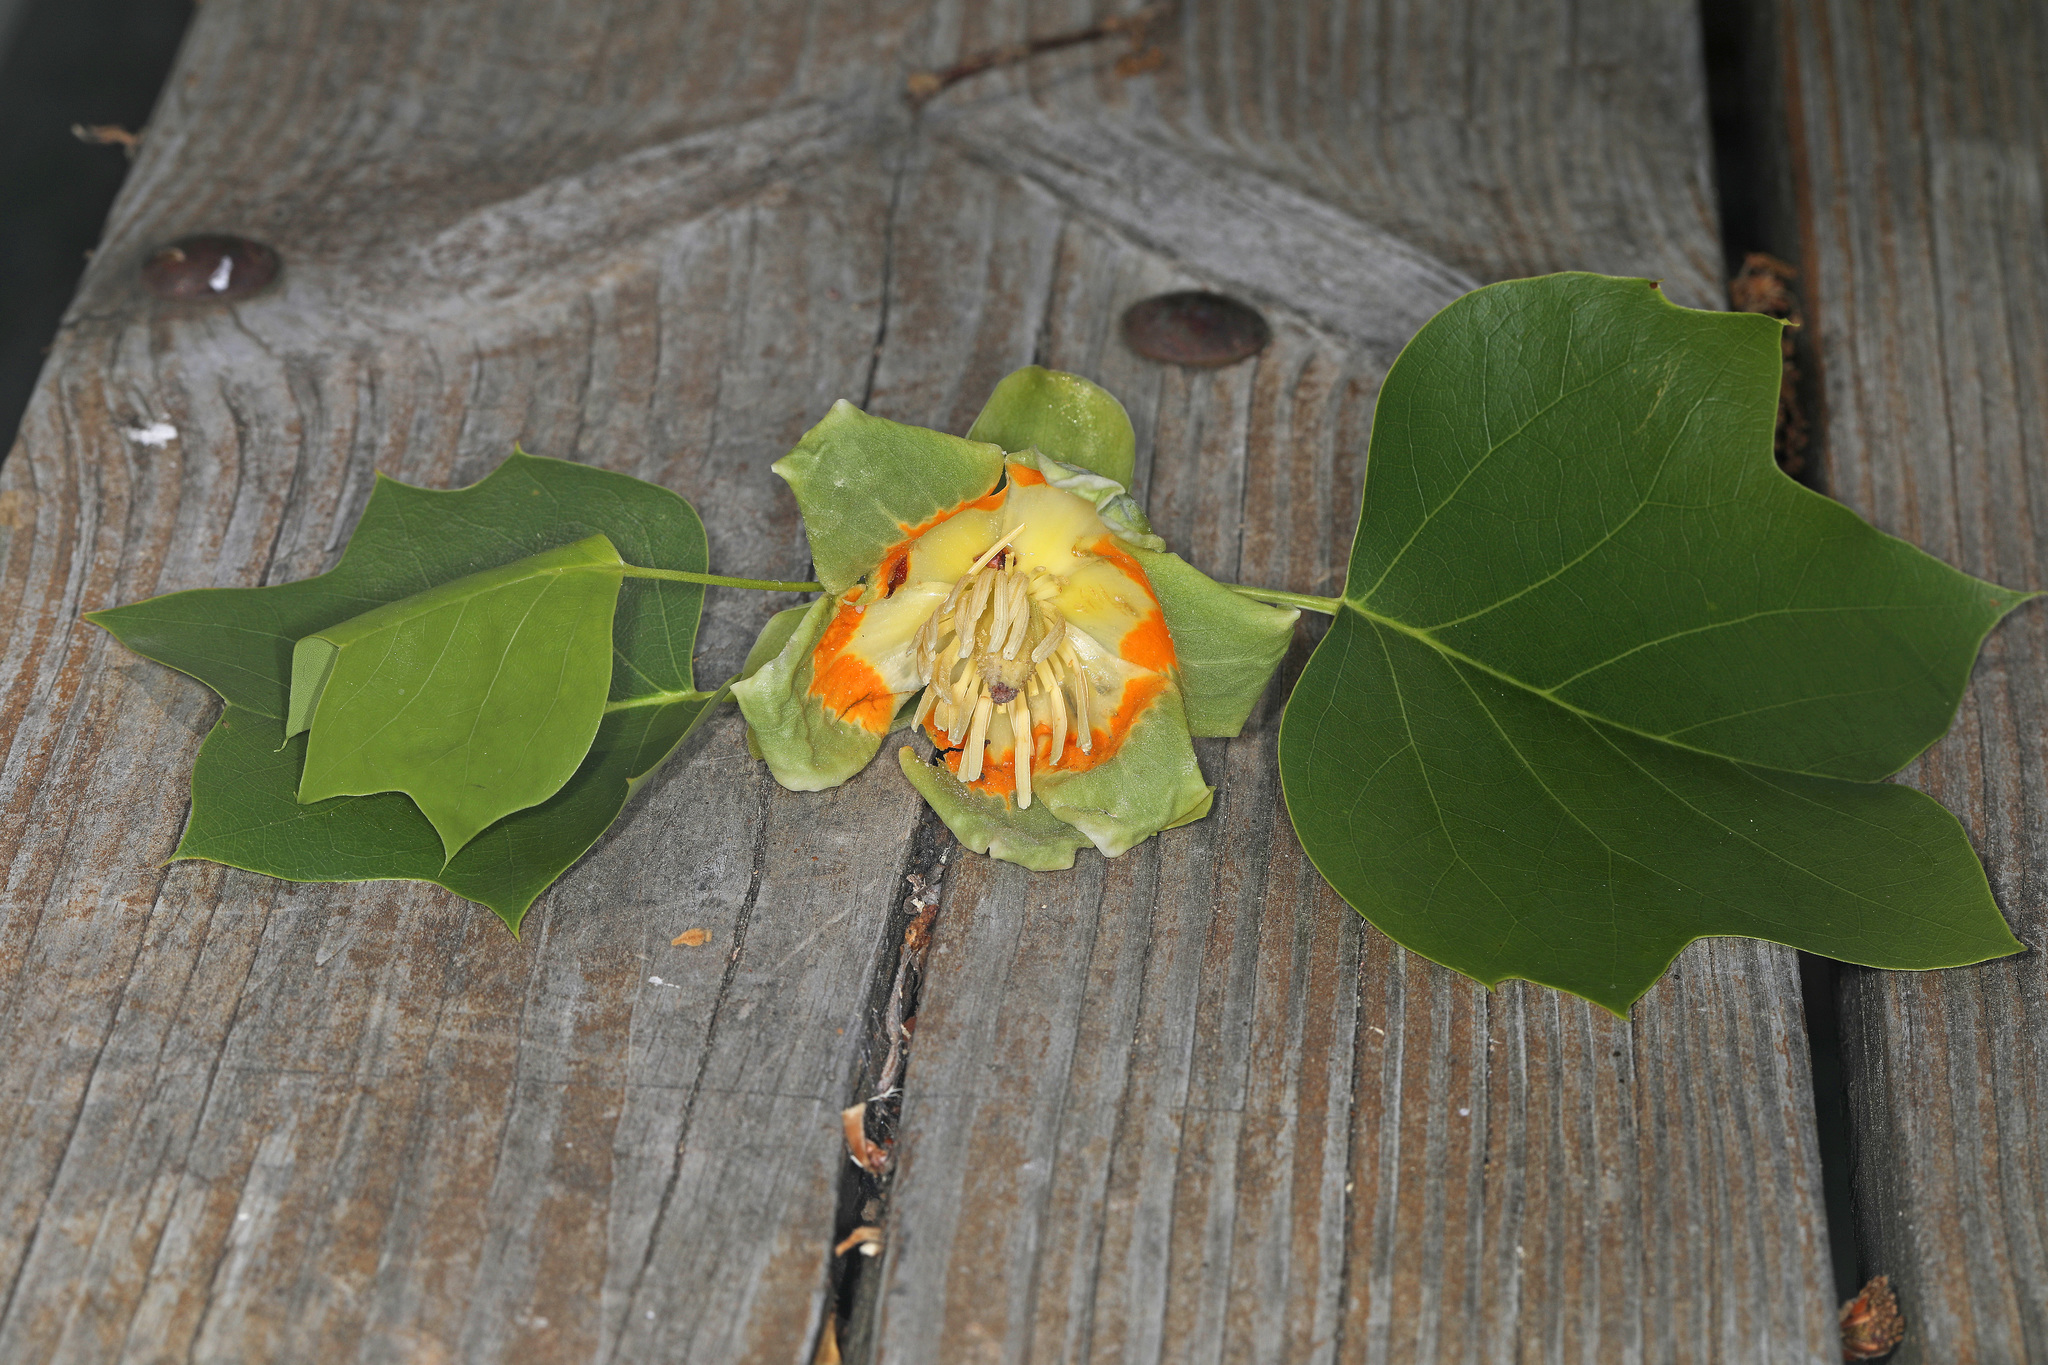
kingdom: Plantae
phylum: Tracheophyta
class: Magnoliopsida
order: Magnoliales
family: Magnoliaceae
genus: Liriodendron
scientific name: Liriodendron tulipifera
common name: Tulip tree
